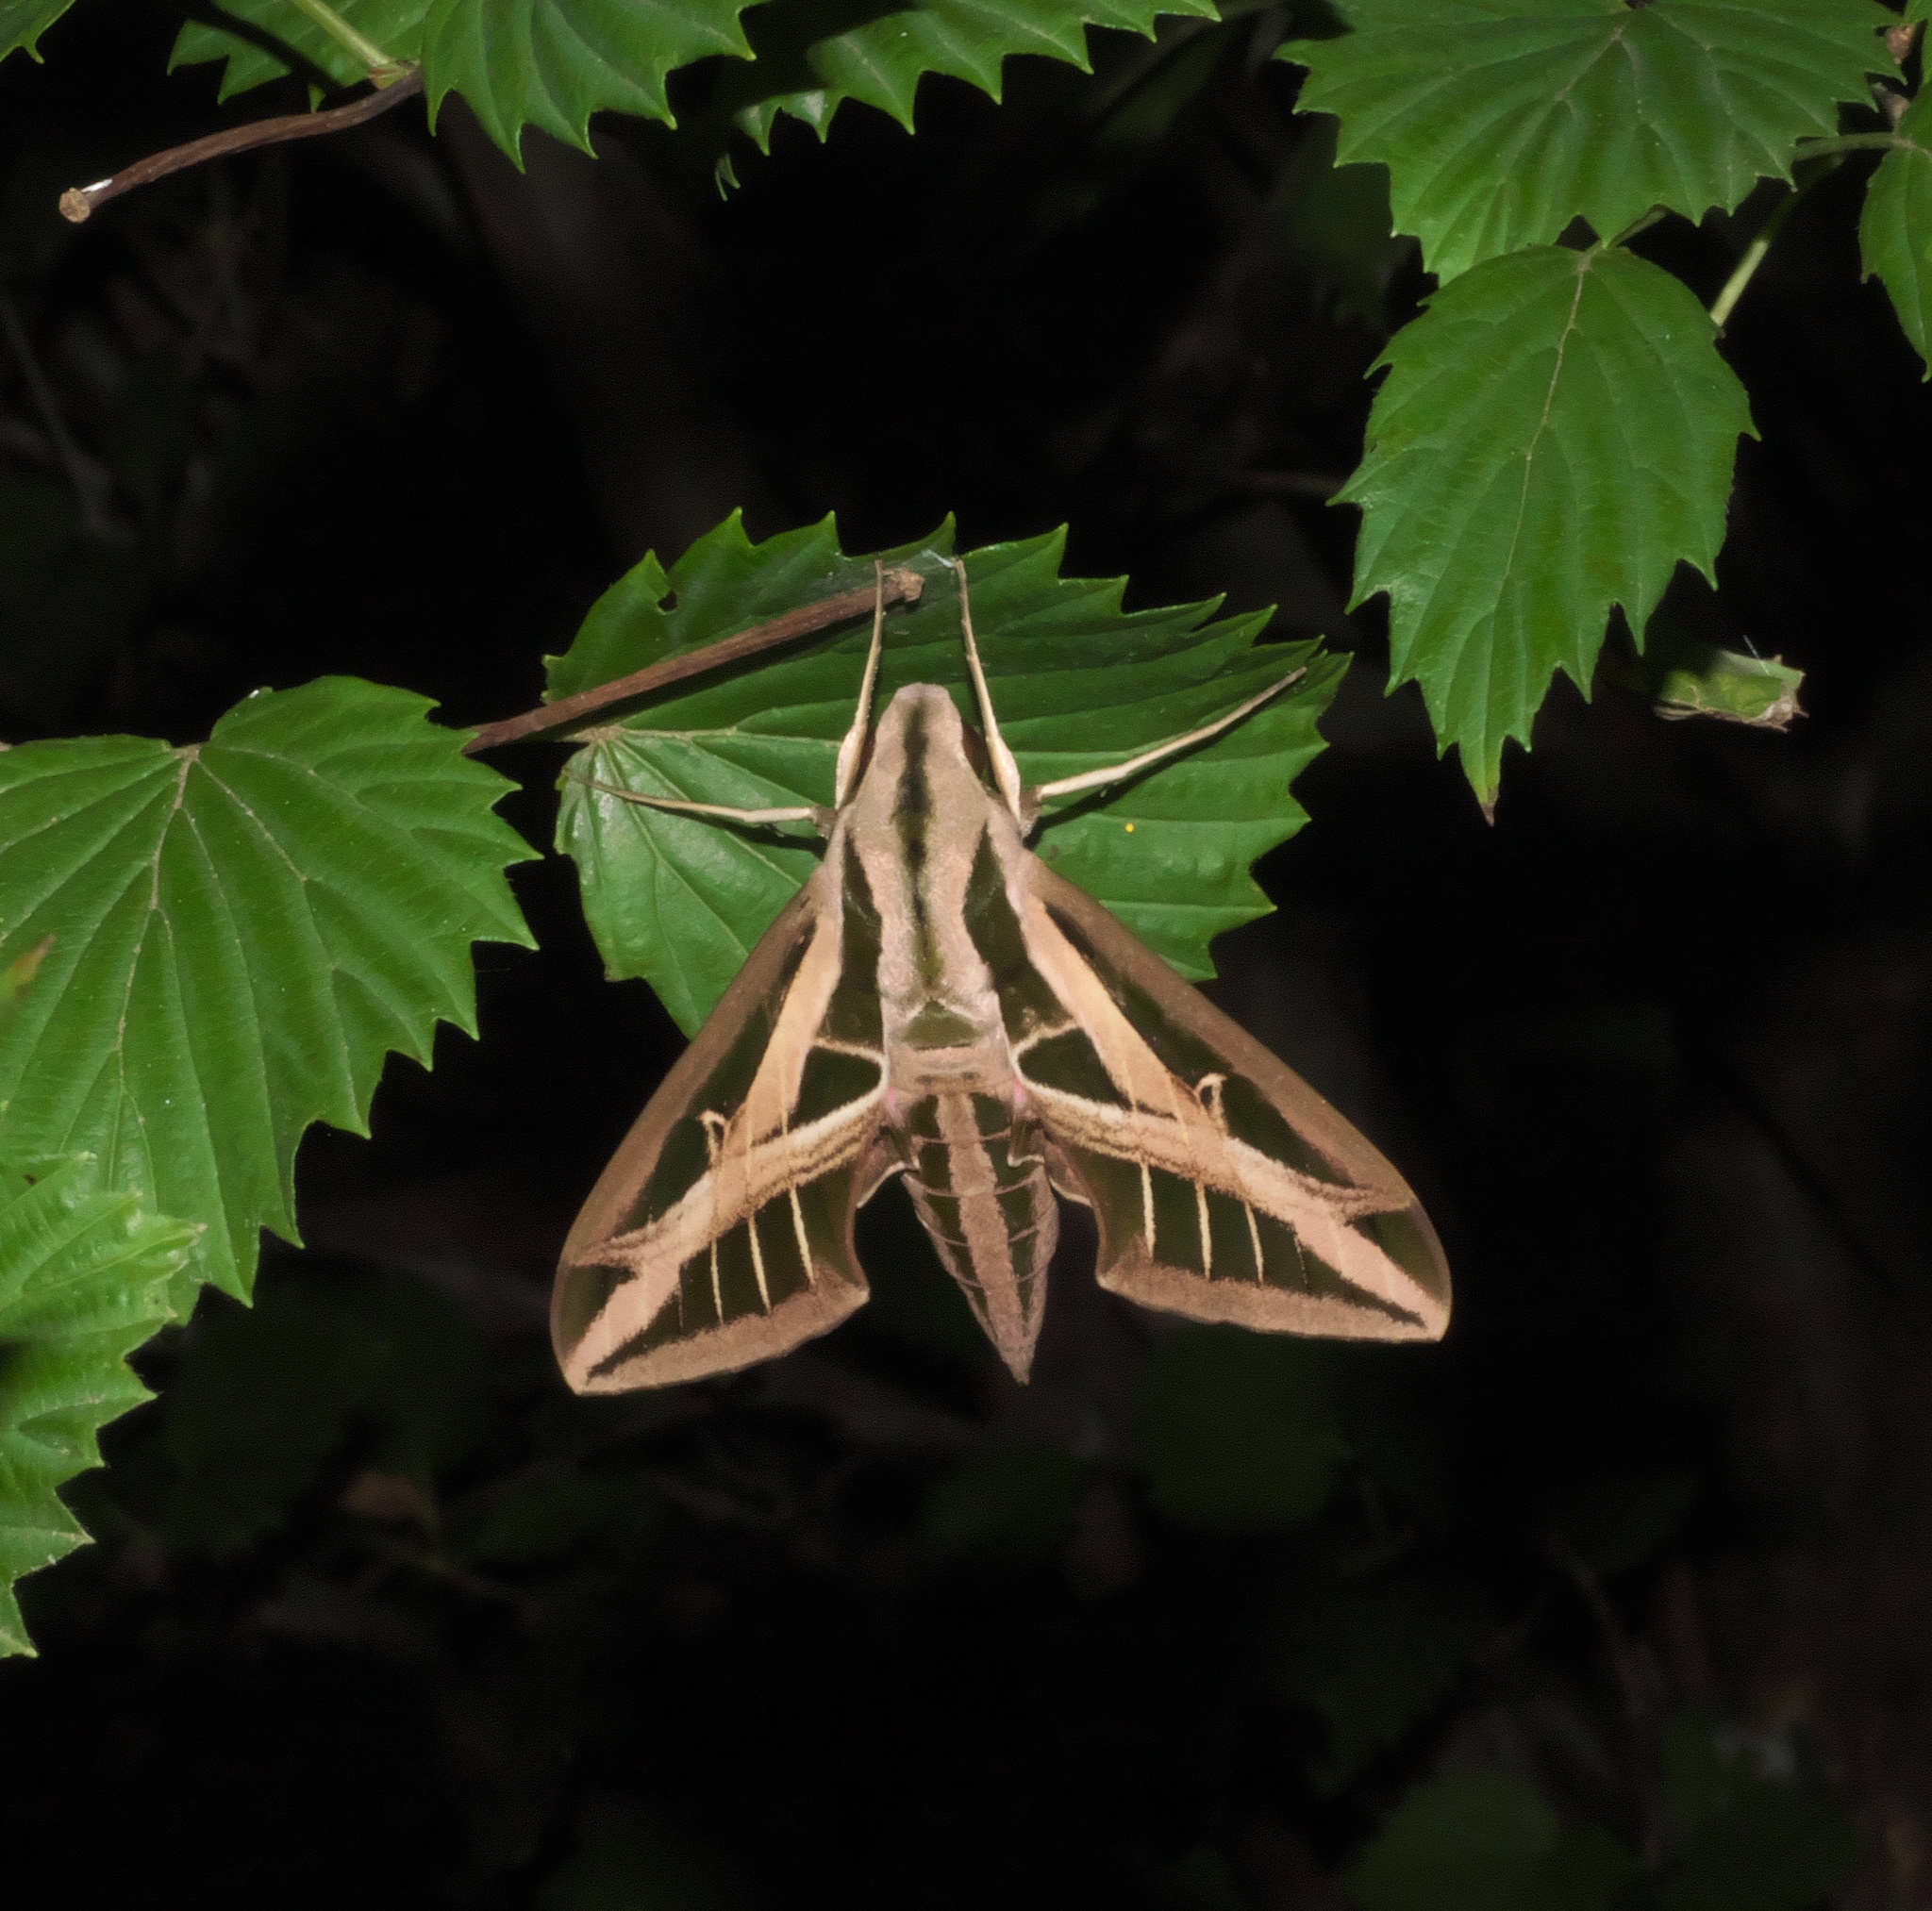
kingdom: Animalia
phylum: Arthropoda
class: Insecta
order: Lepidoptera
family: Sphingidae
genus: Eumorpha
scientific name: Eumorpha fasciatus
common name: Banded sphinx
